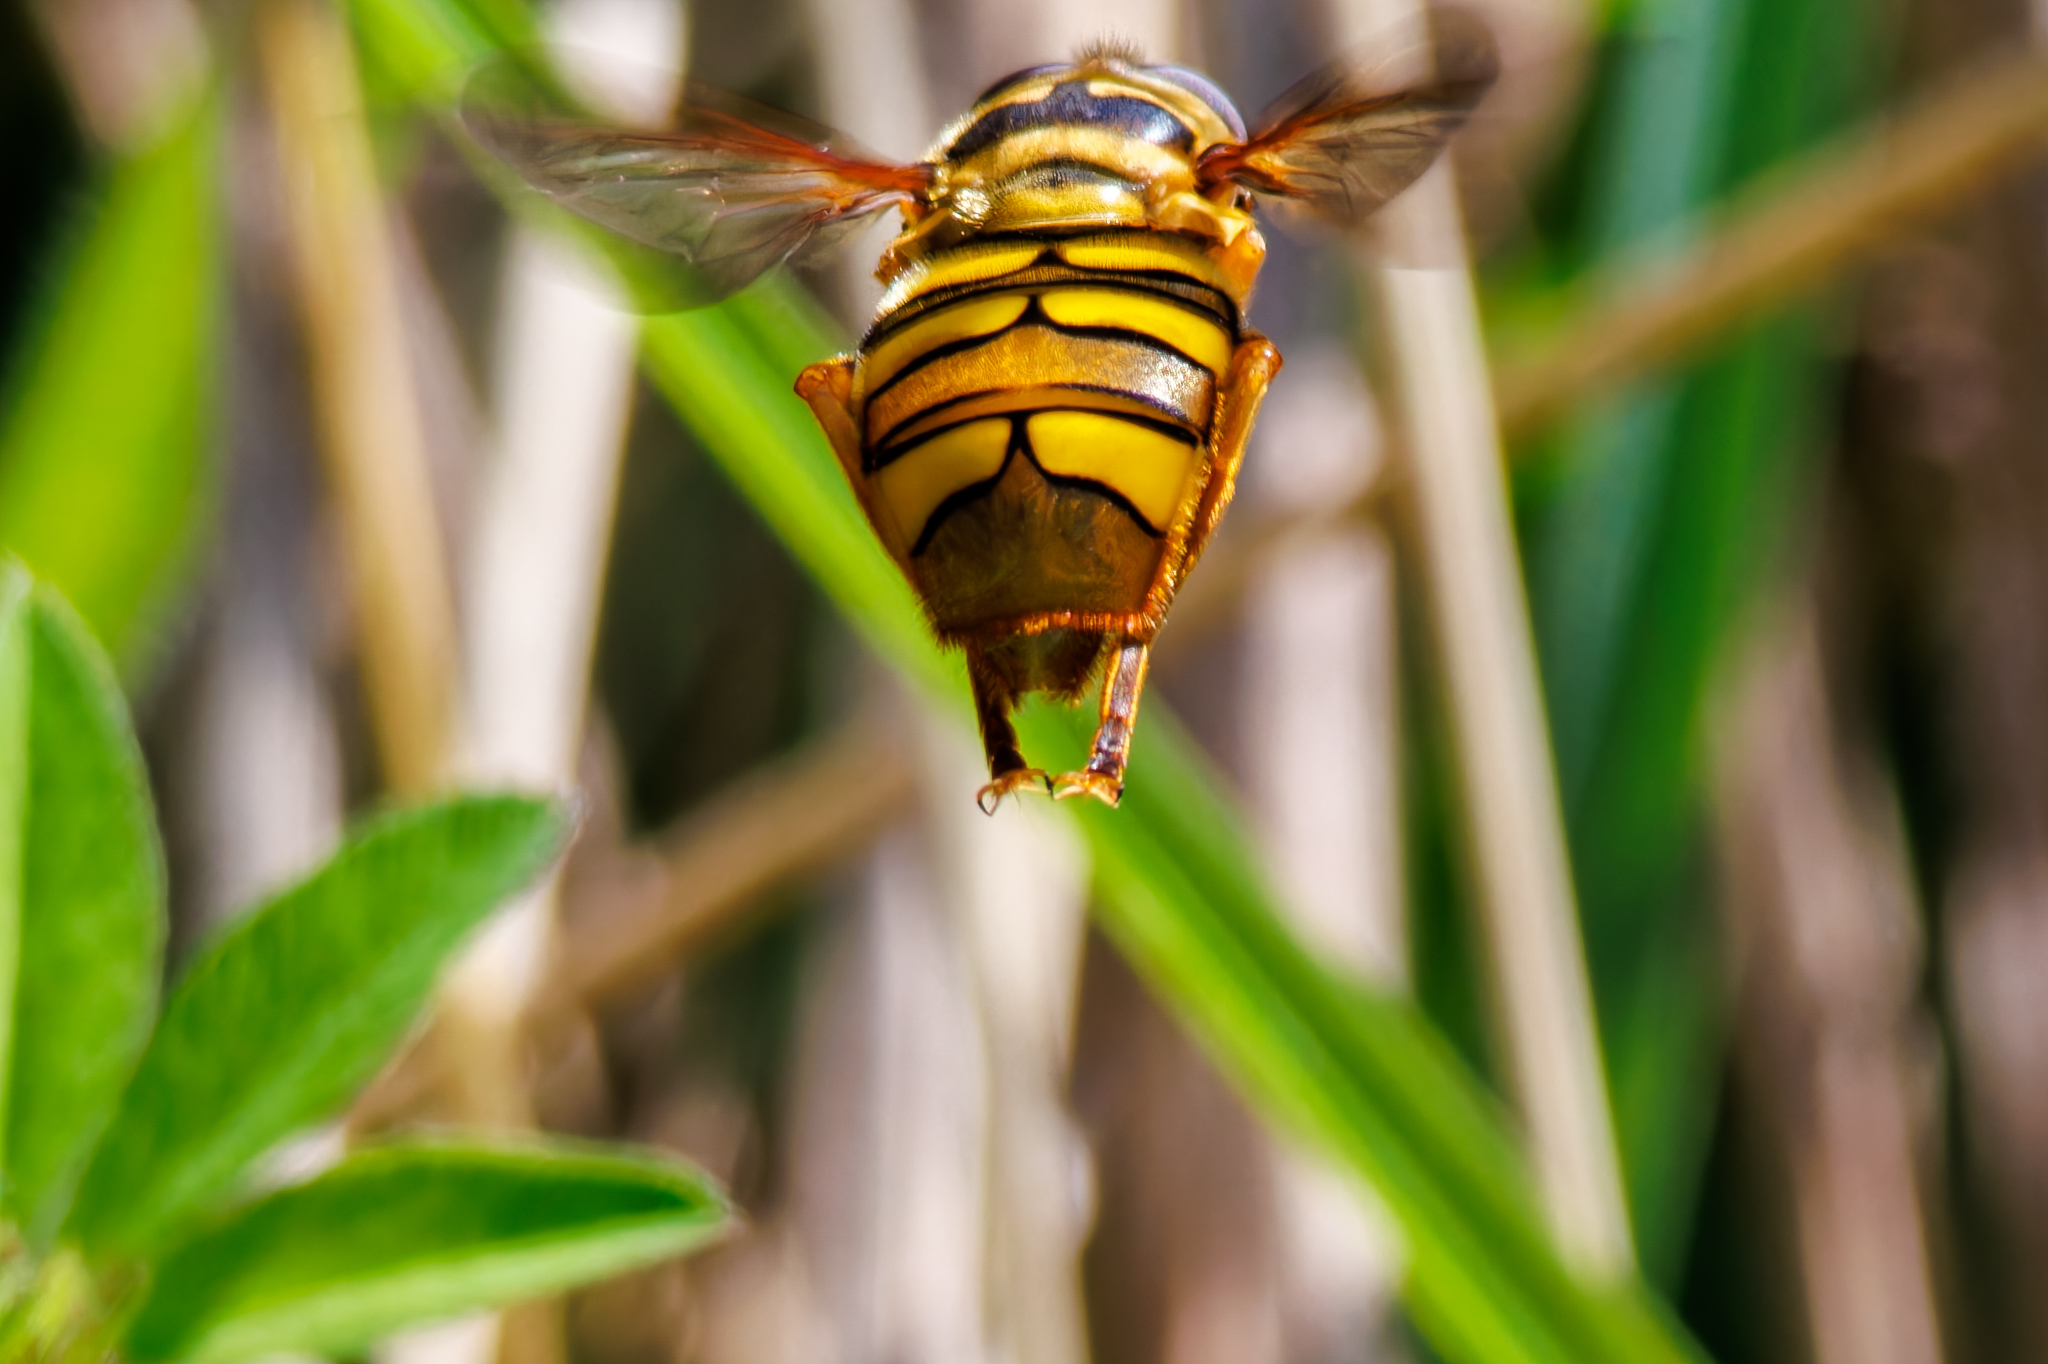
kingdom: Animalia
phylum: Arthropoda
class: Insecta
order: Diptera
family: Syrphidae
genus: Milesia
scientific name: Milesia virginiensis
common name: Virginia giant
